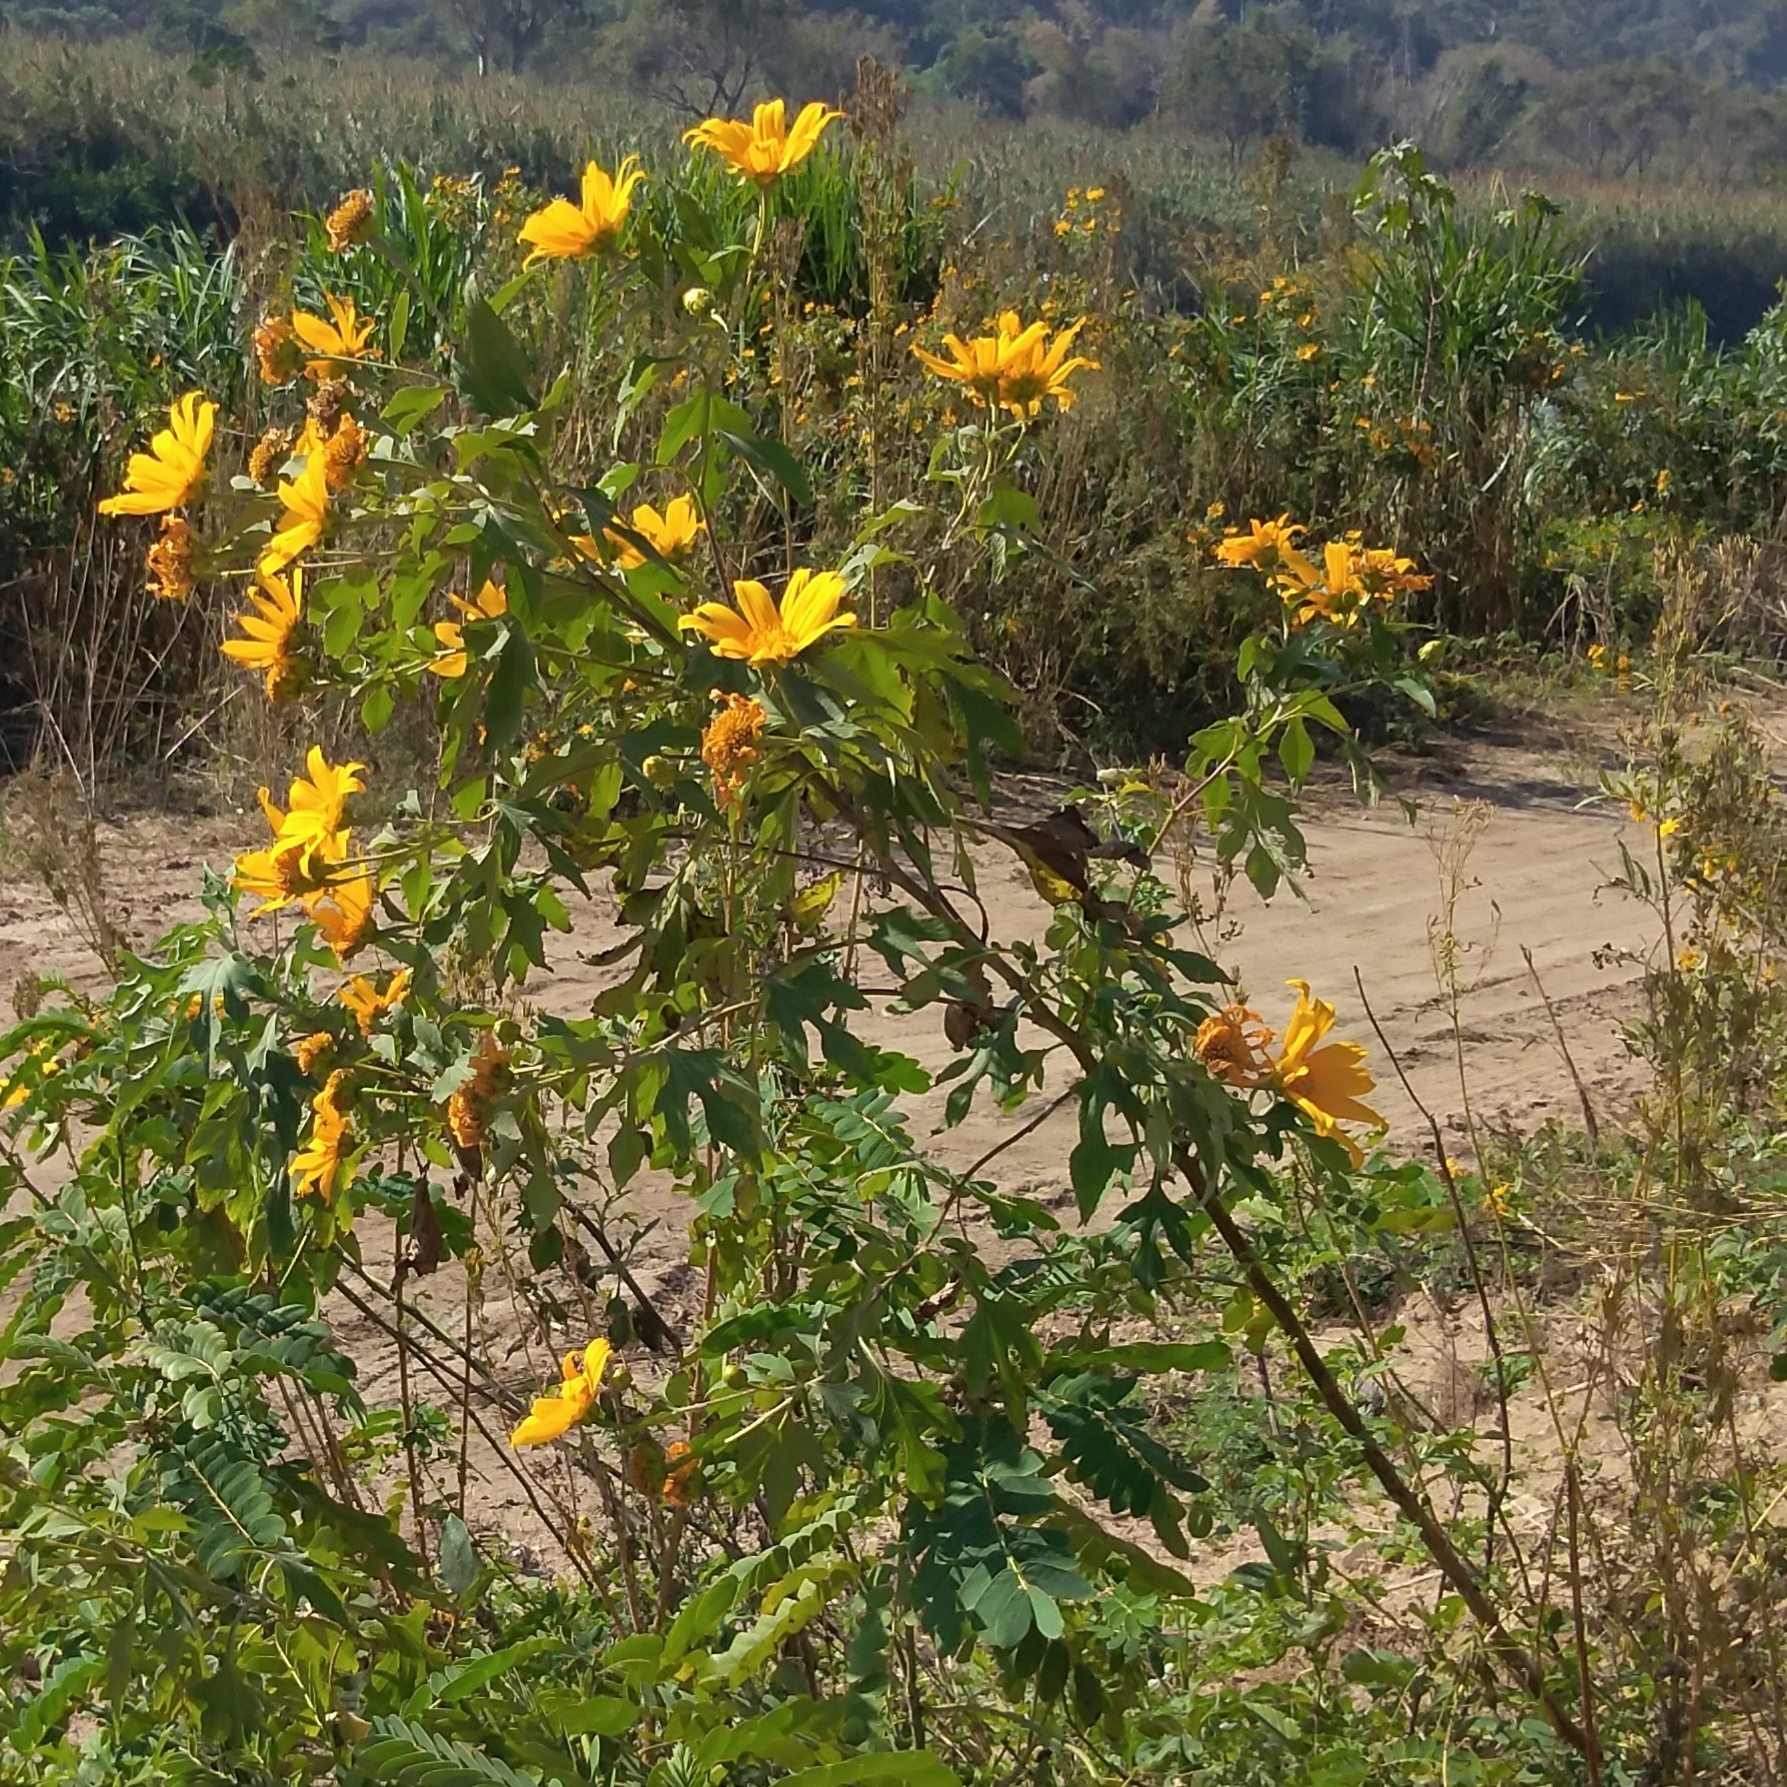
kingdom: Plantae
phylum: Tracheophyta
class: Magnoliopsida
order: Asterales
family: Asteraceae
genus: Tithonia
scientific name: Tithonia diversifolia
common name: Tree marigold
